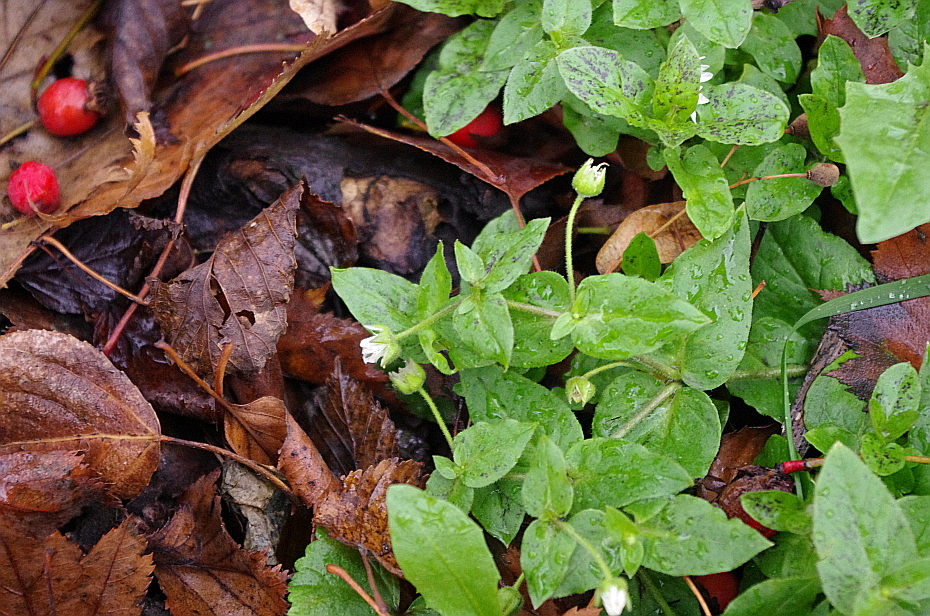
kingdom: Plantae
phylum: Tracheophyta
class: Magnoliopsida
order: Caryophyllales
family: Caryophyllaceae
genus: Stellaria
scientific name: Stellaria aquatica
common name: Water chickweed
